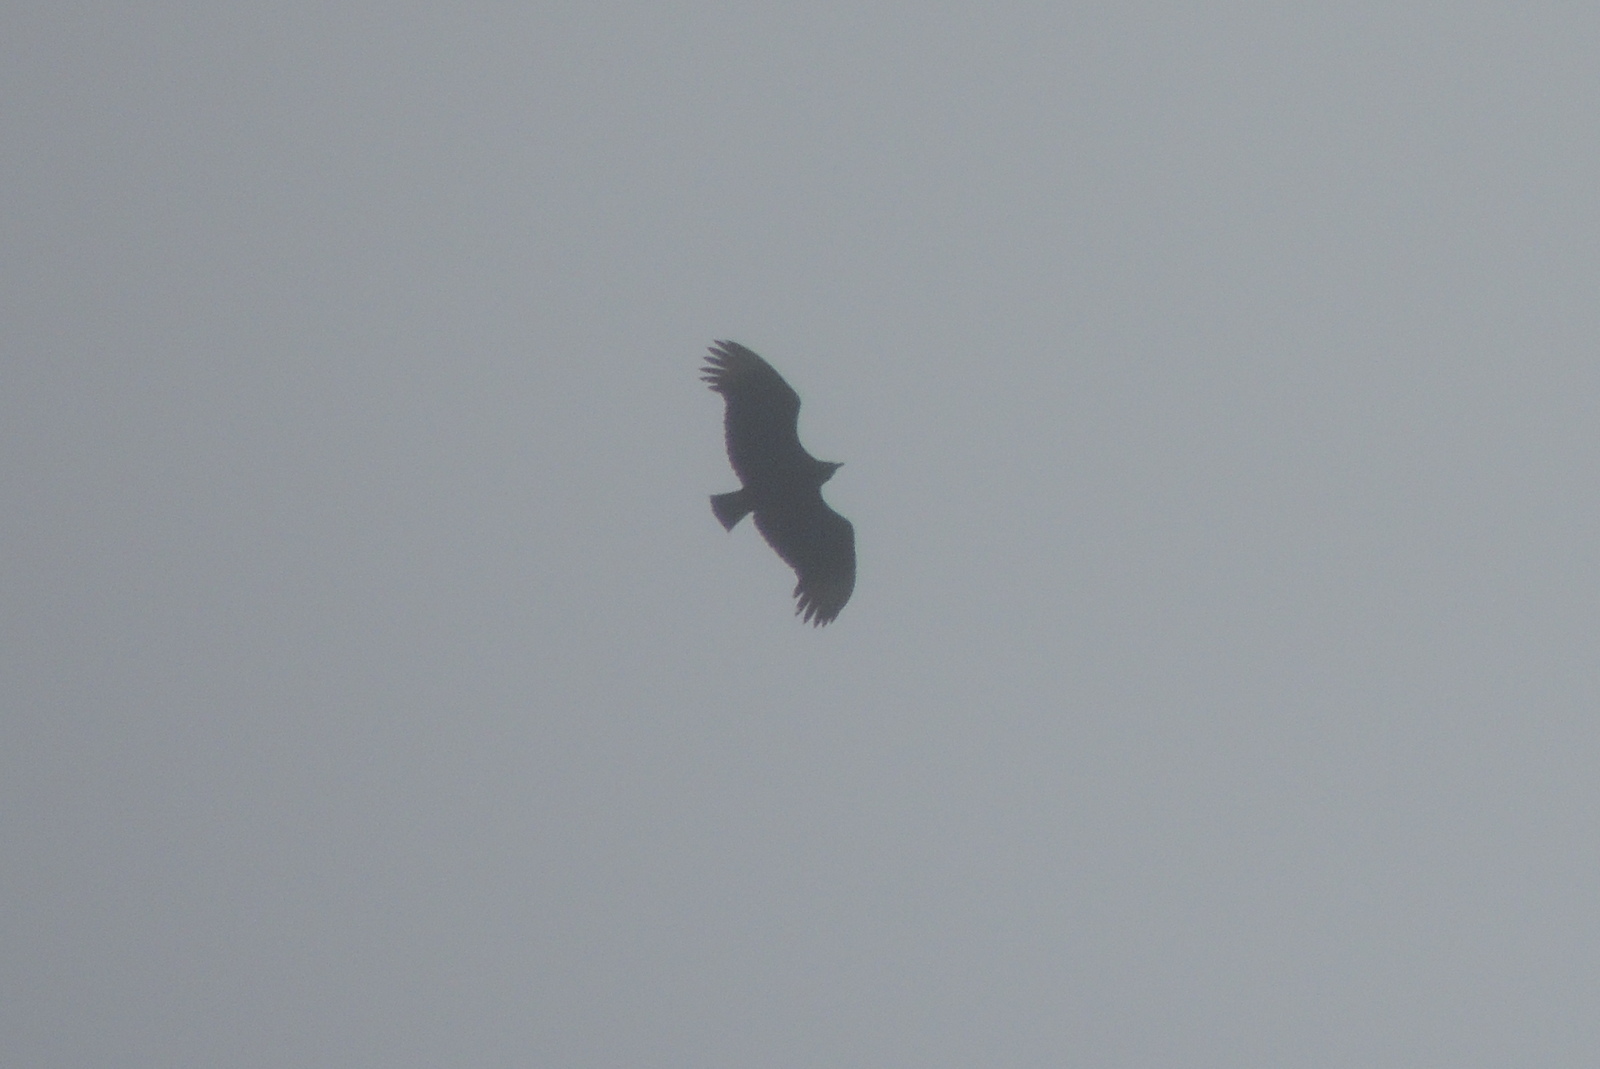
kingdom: Animalia
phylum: Chordata
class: Aves
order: Accipitriformes
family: Cathartidae
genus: Coragyps
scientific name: Coragyps atratus
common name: Black vulture
